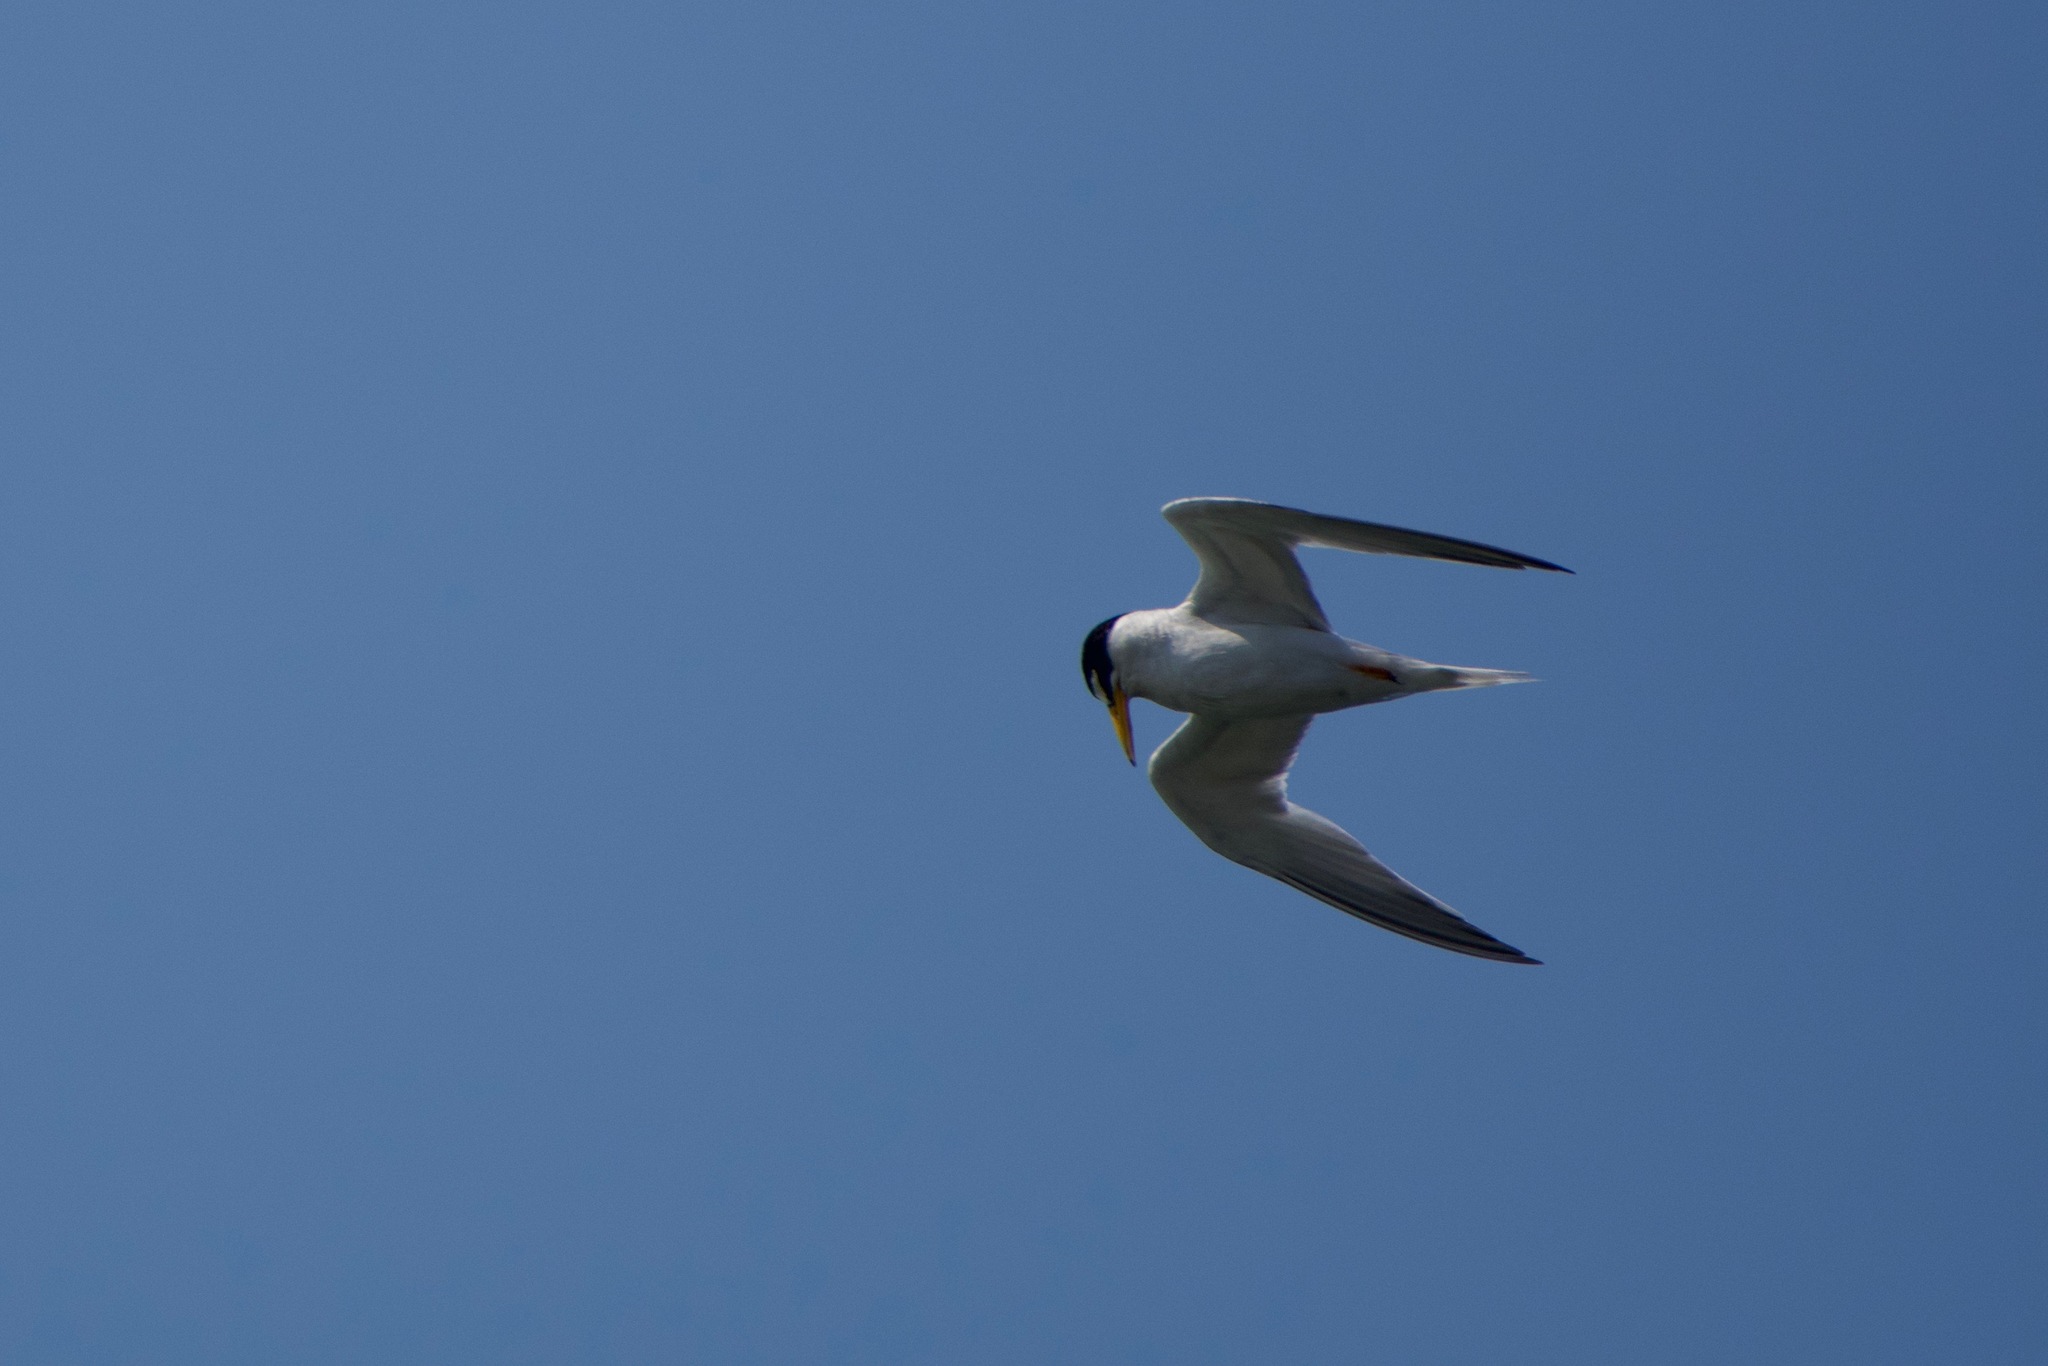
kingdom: Animalia
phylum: Chordata
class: Aves
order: Charadriiformes
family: Laridae
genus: Sternula
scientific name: Sternula antillarum
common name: Least tern
